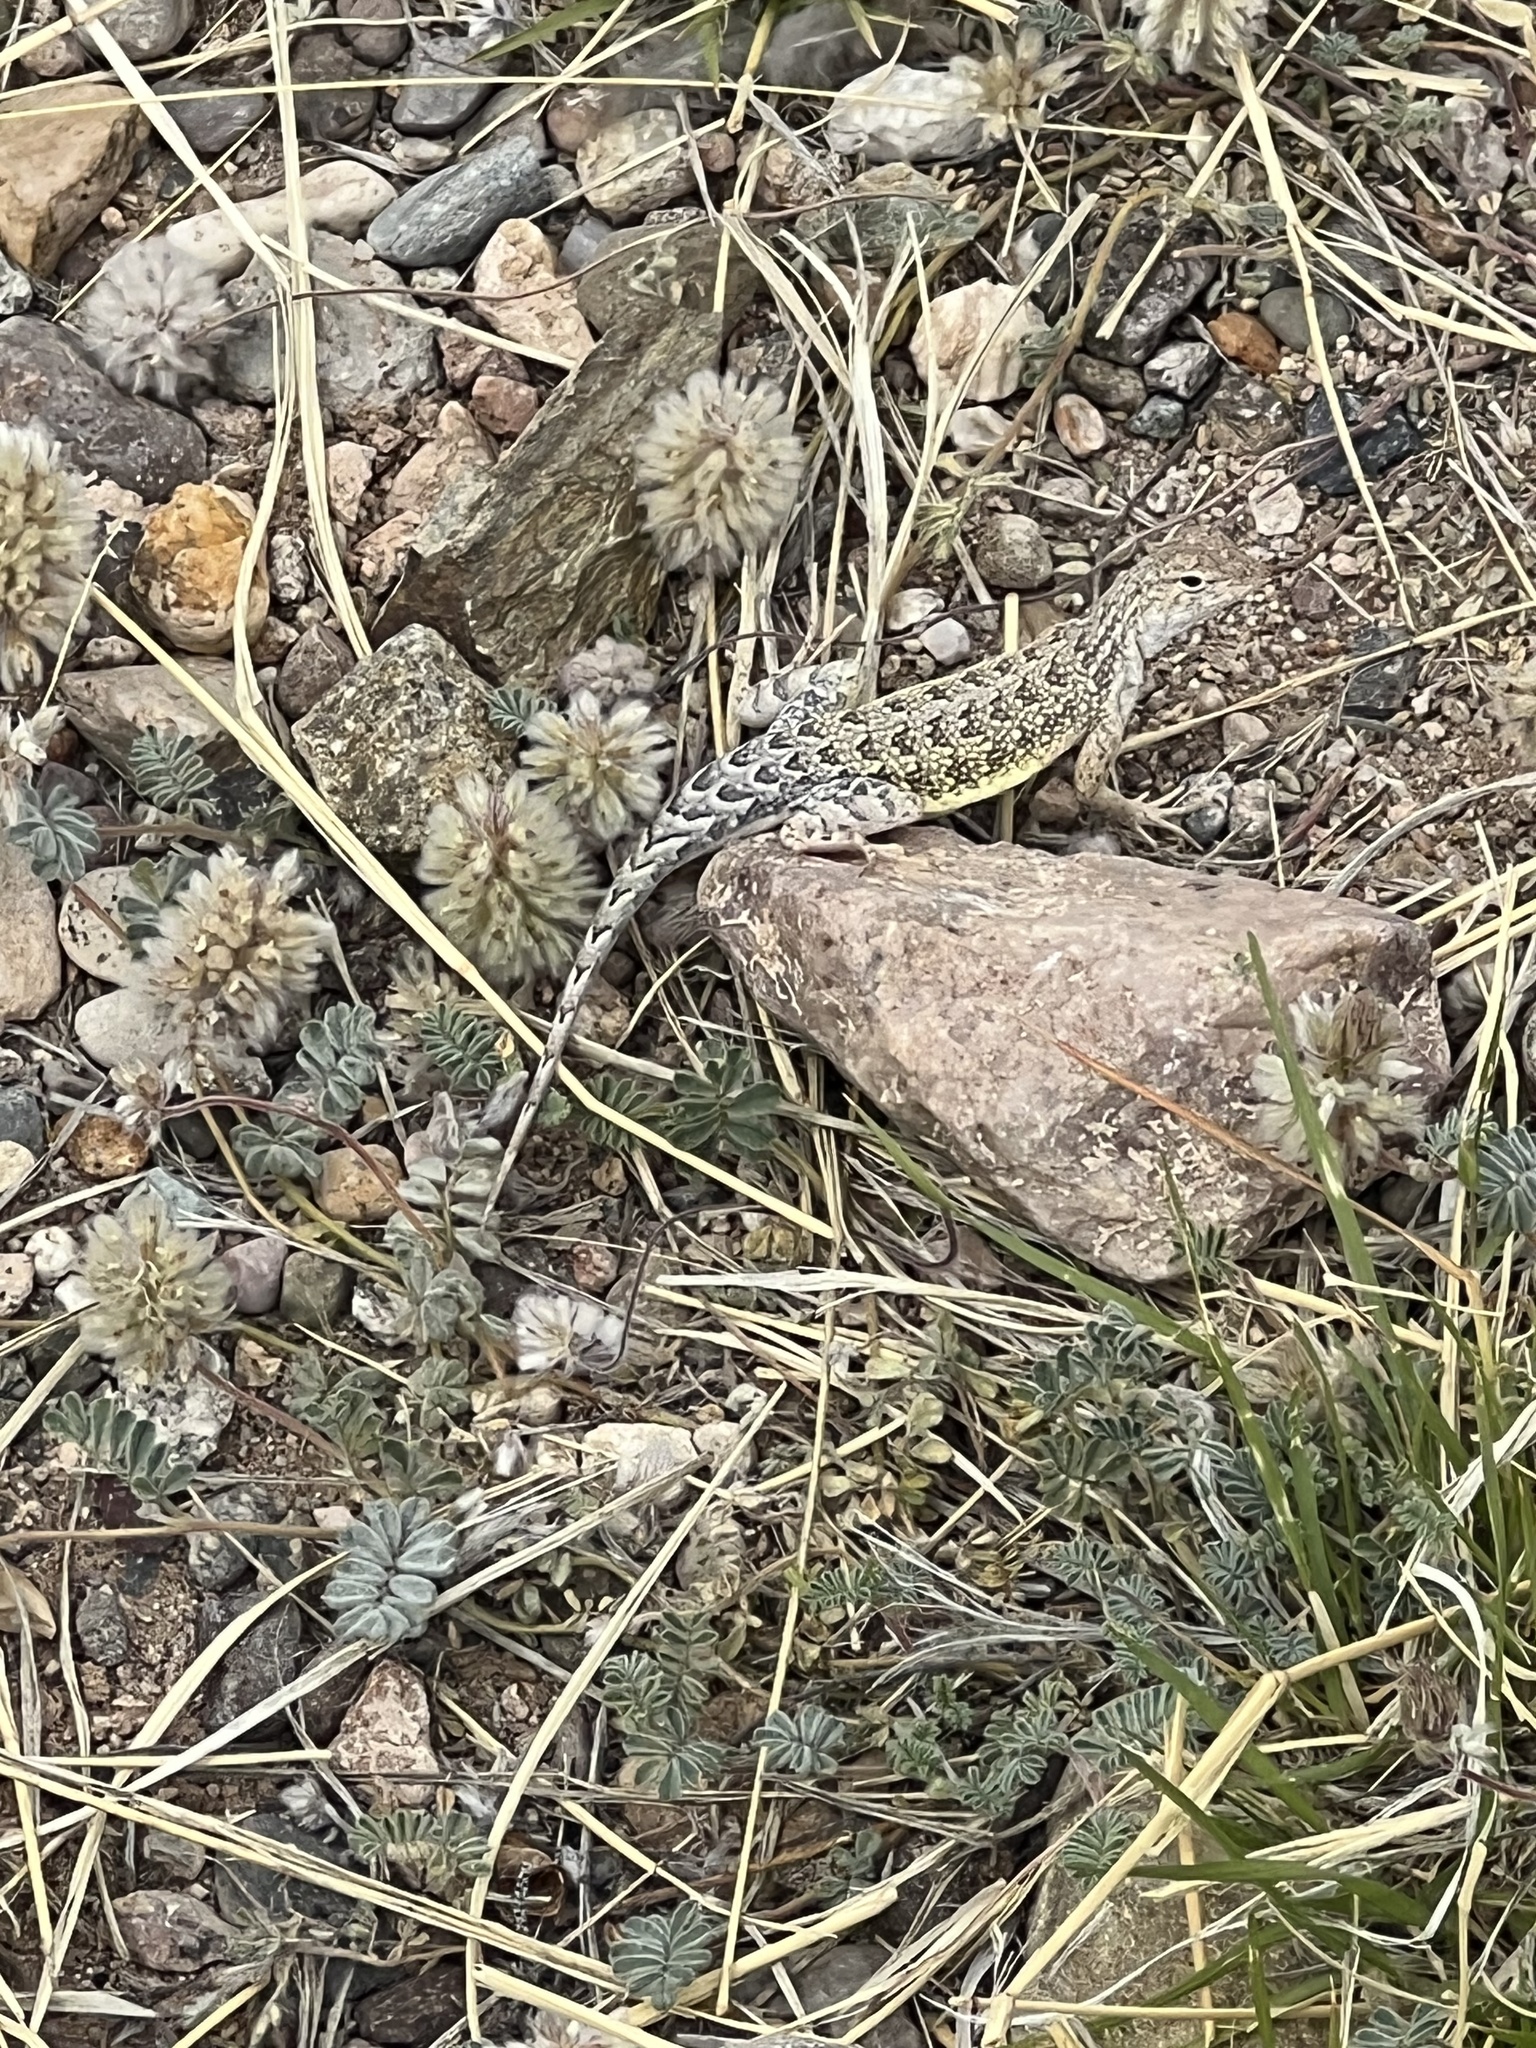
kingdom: Animalia
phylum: Chordata
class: Squamata
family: Phrynosomatidae
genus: Holbrookia
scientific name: Holbrookia elegans
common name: Elegant earless lizard
